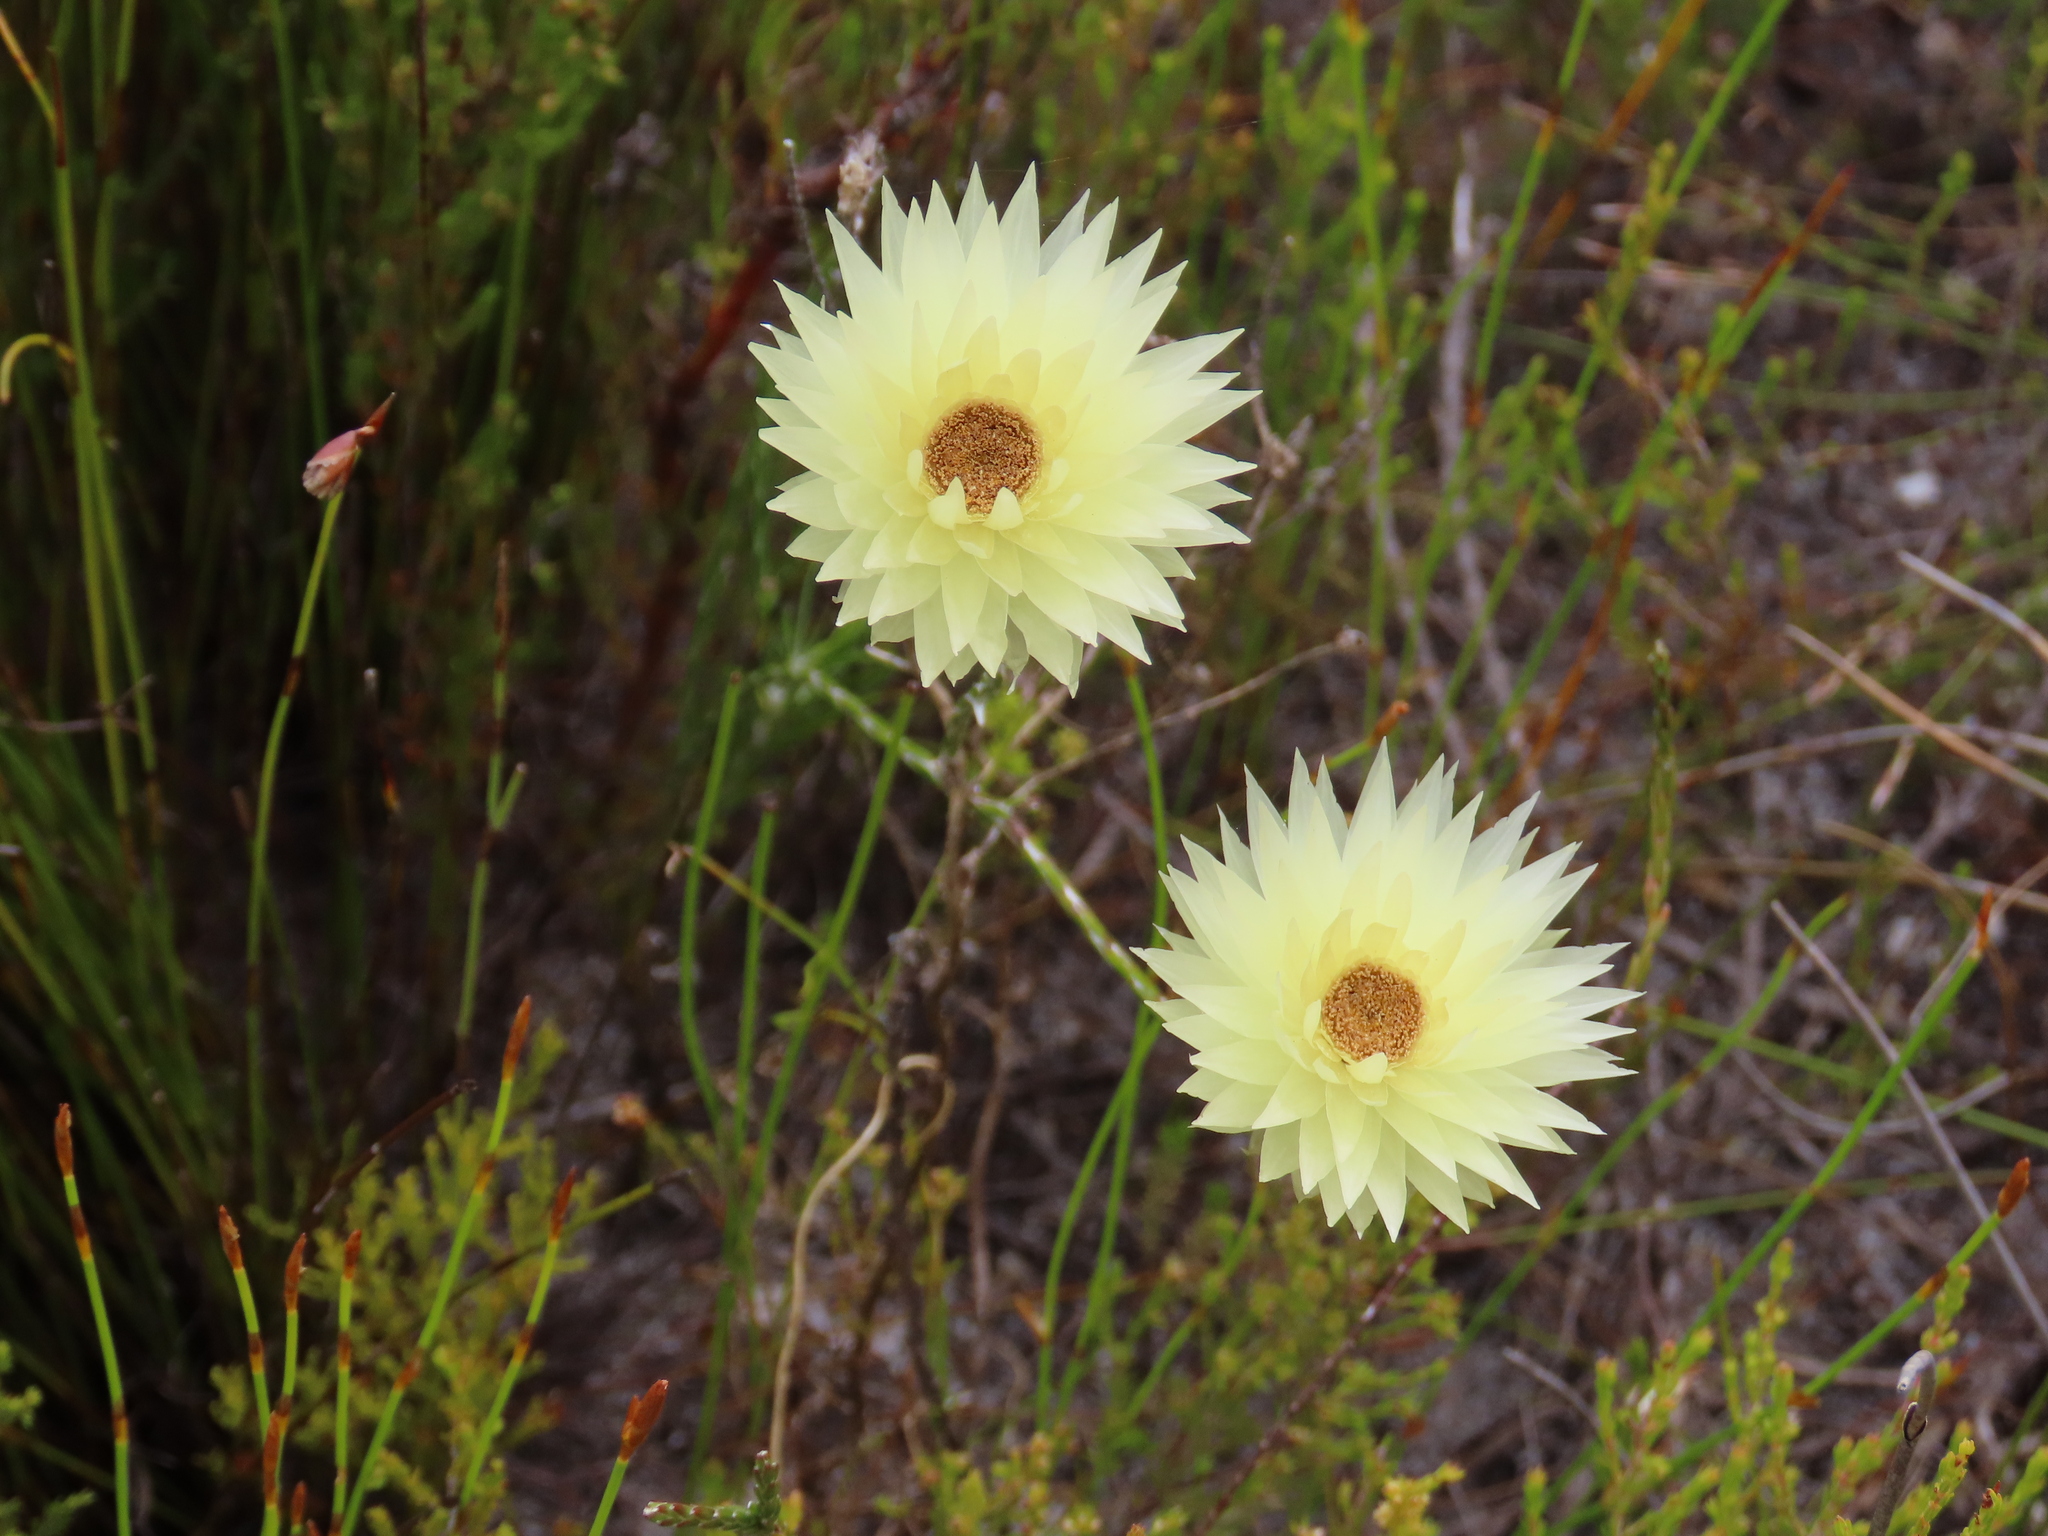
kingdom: Plantae
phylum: Tracheophyta
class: Magnoliopsida
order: Asterales
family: Asteraceae
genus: Edmondia
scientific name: Edmondia sesamoides
